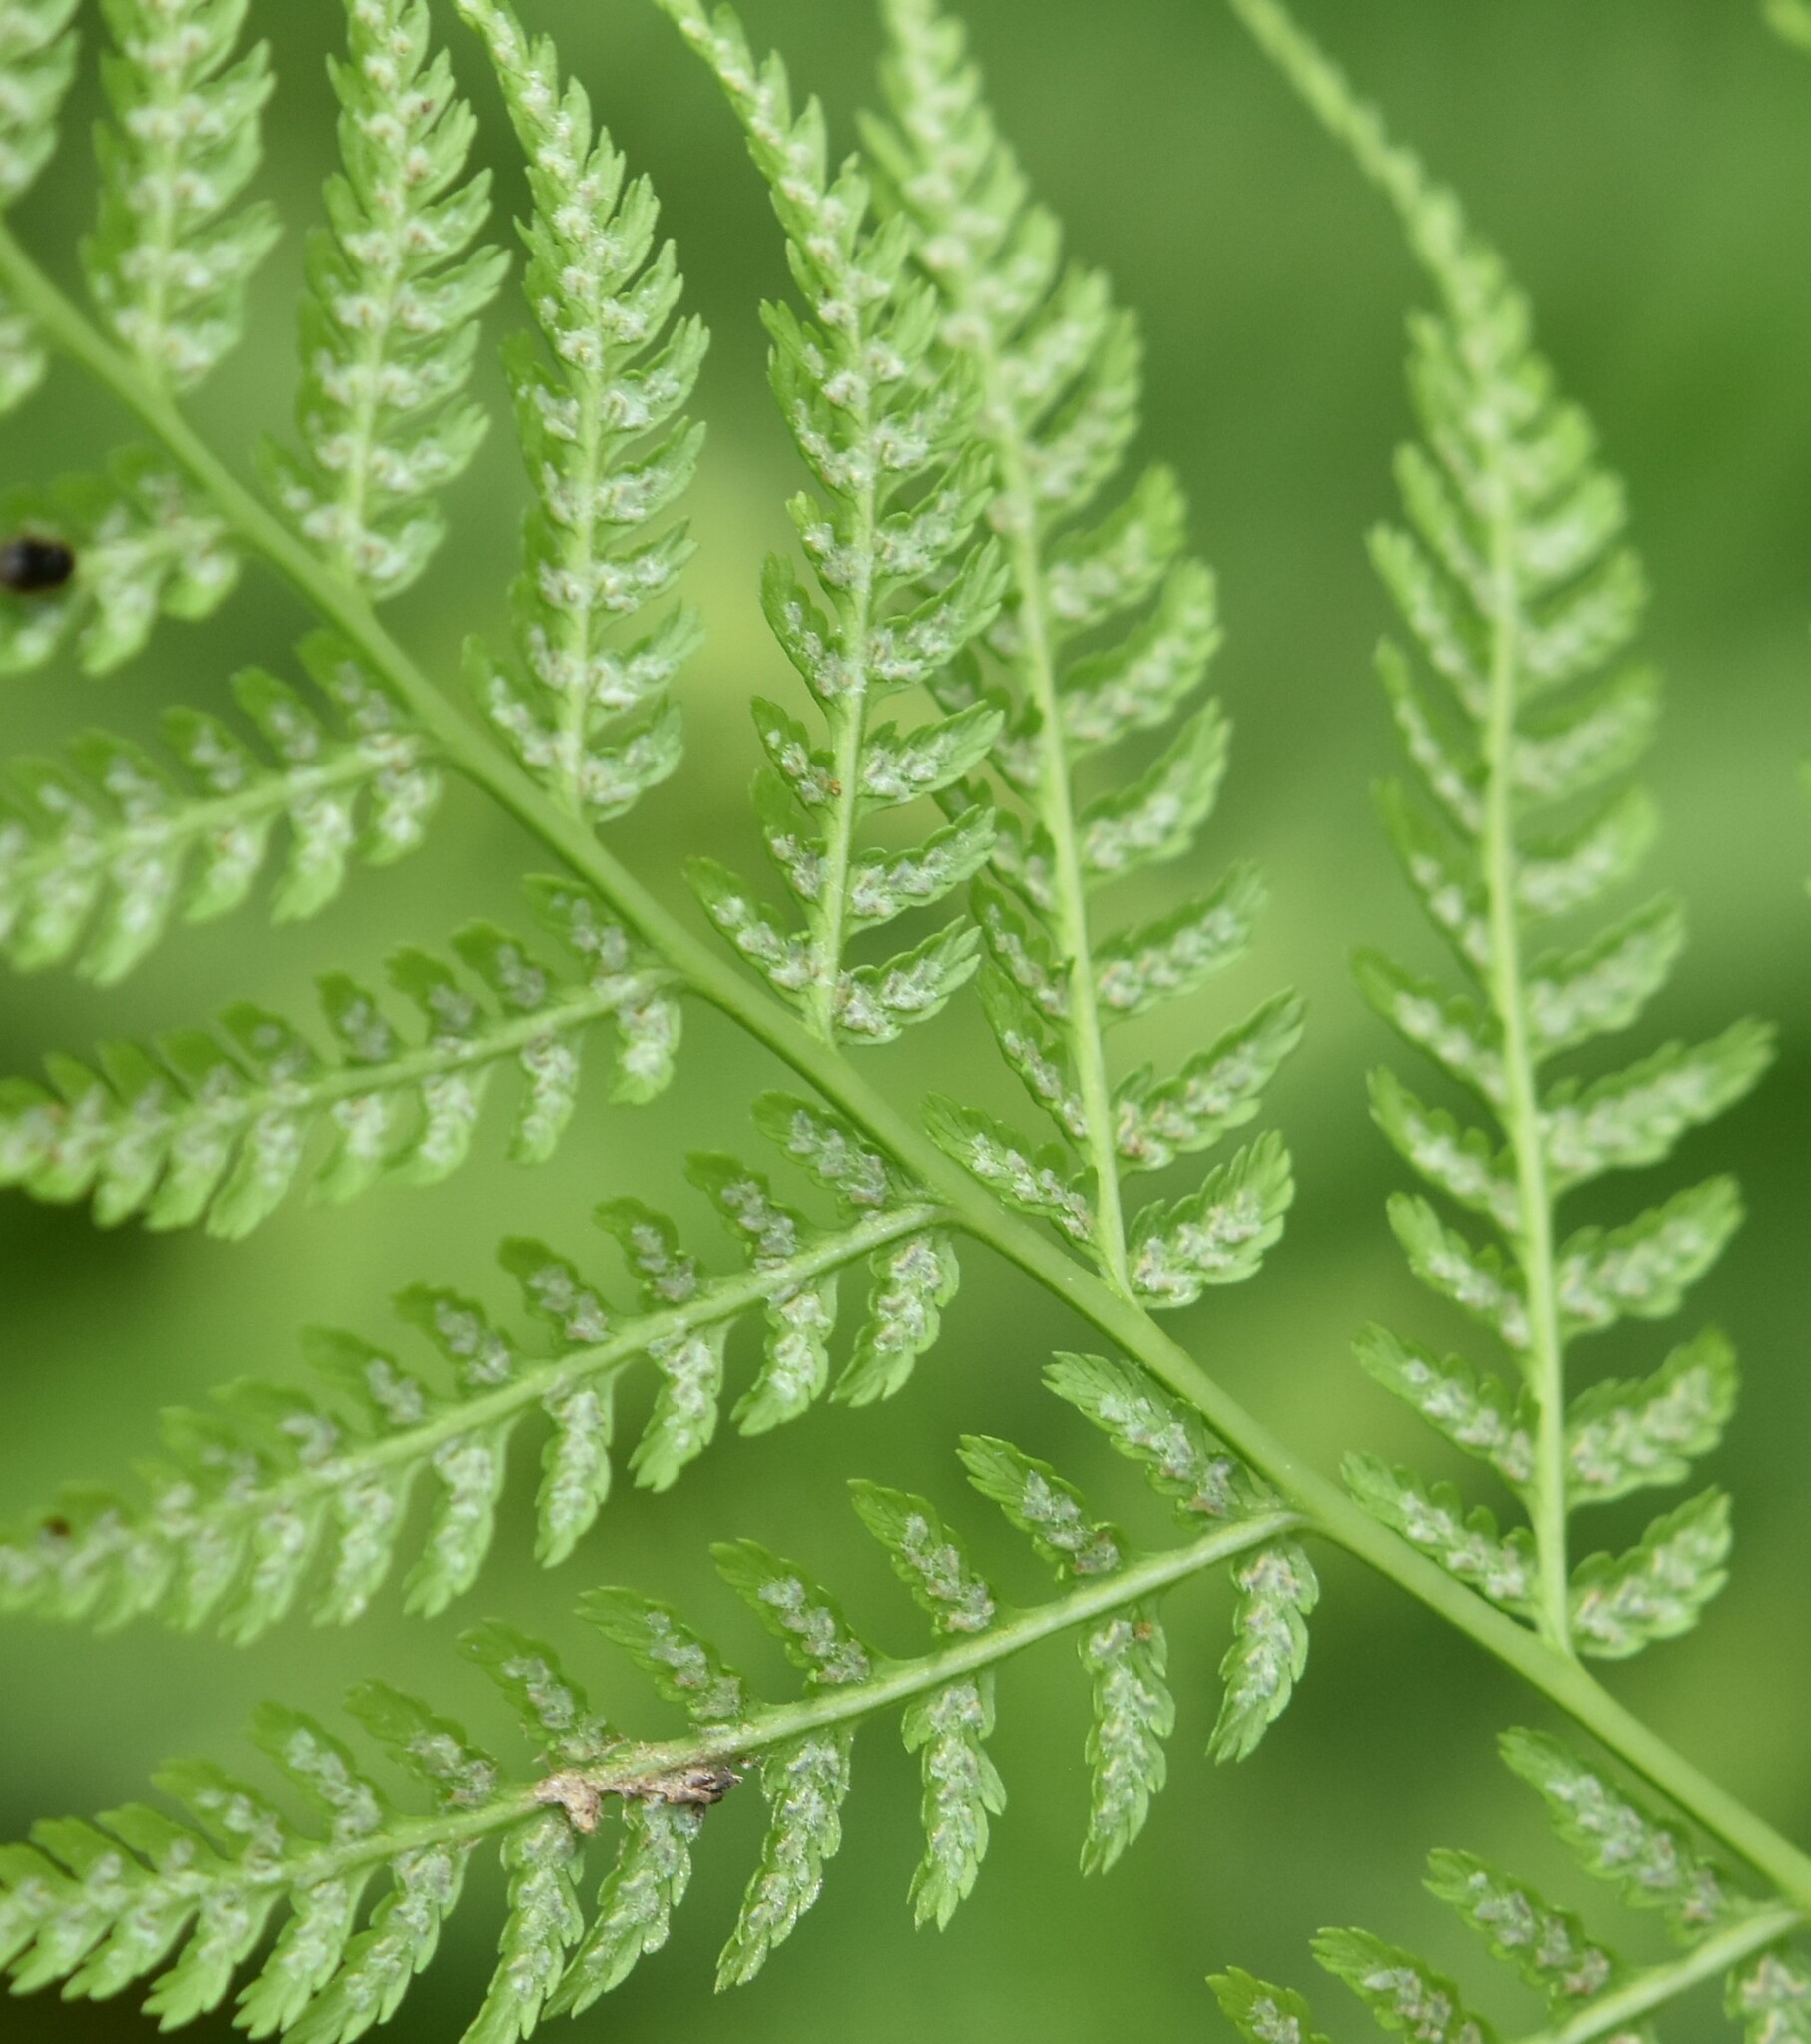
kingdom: Plantae
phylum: Tracheophyta
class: Polypodiopsida
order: Polypodiales
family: Athyriaceae
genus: Athyrium
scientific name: Athyrium filix-femina
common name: Lady fern
